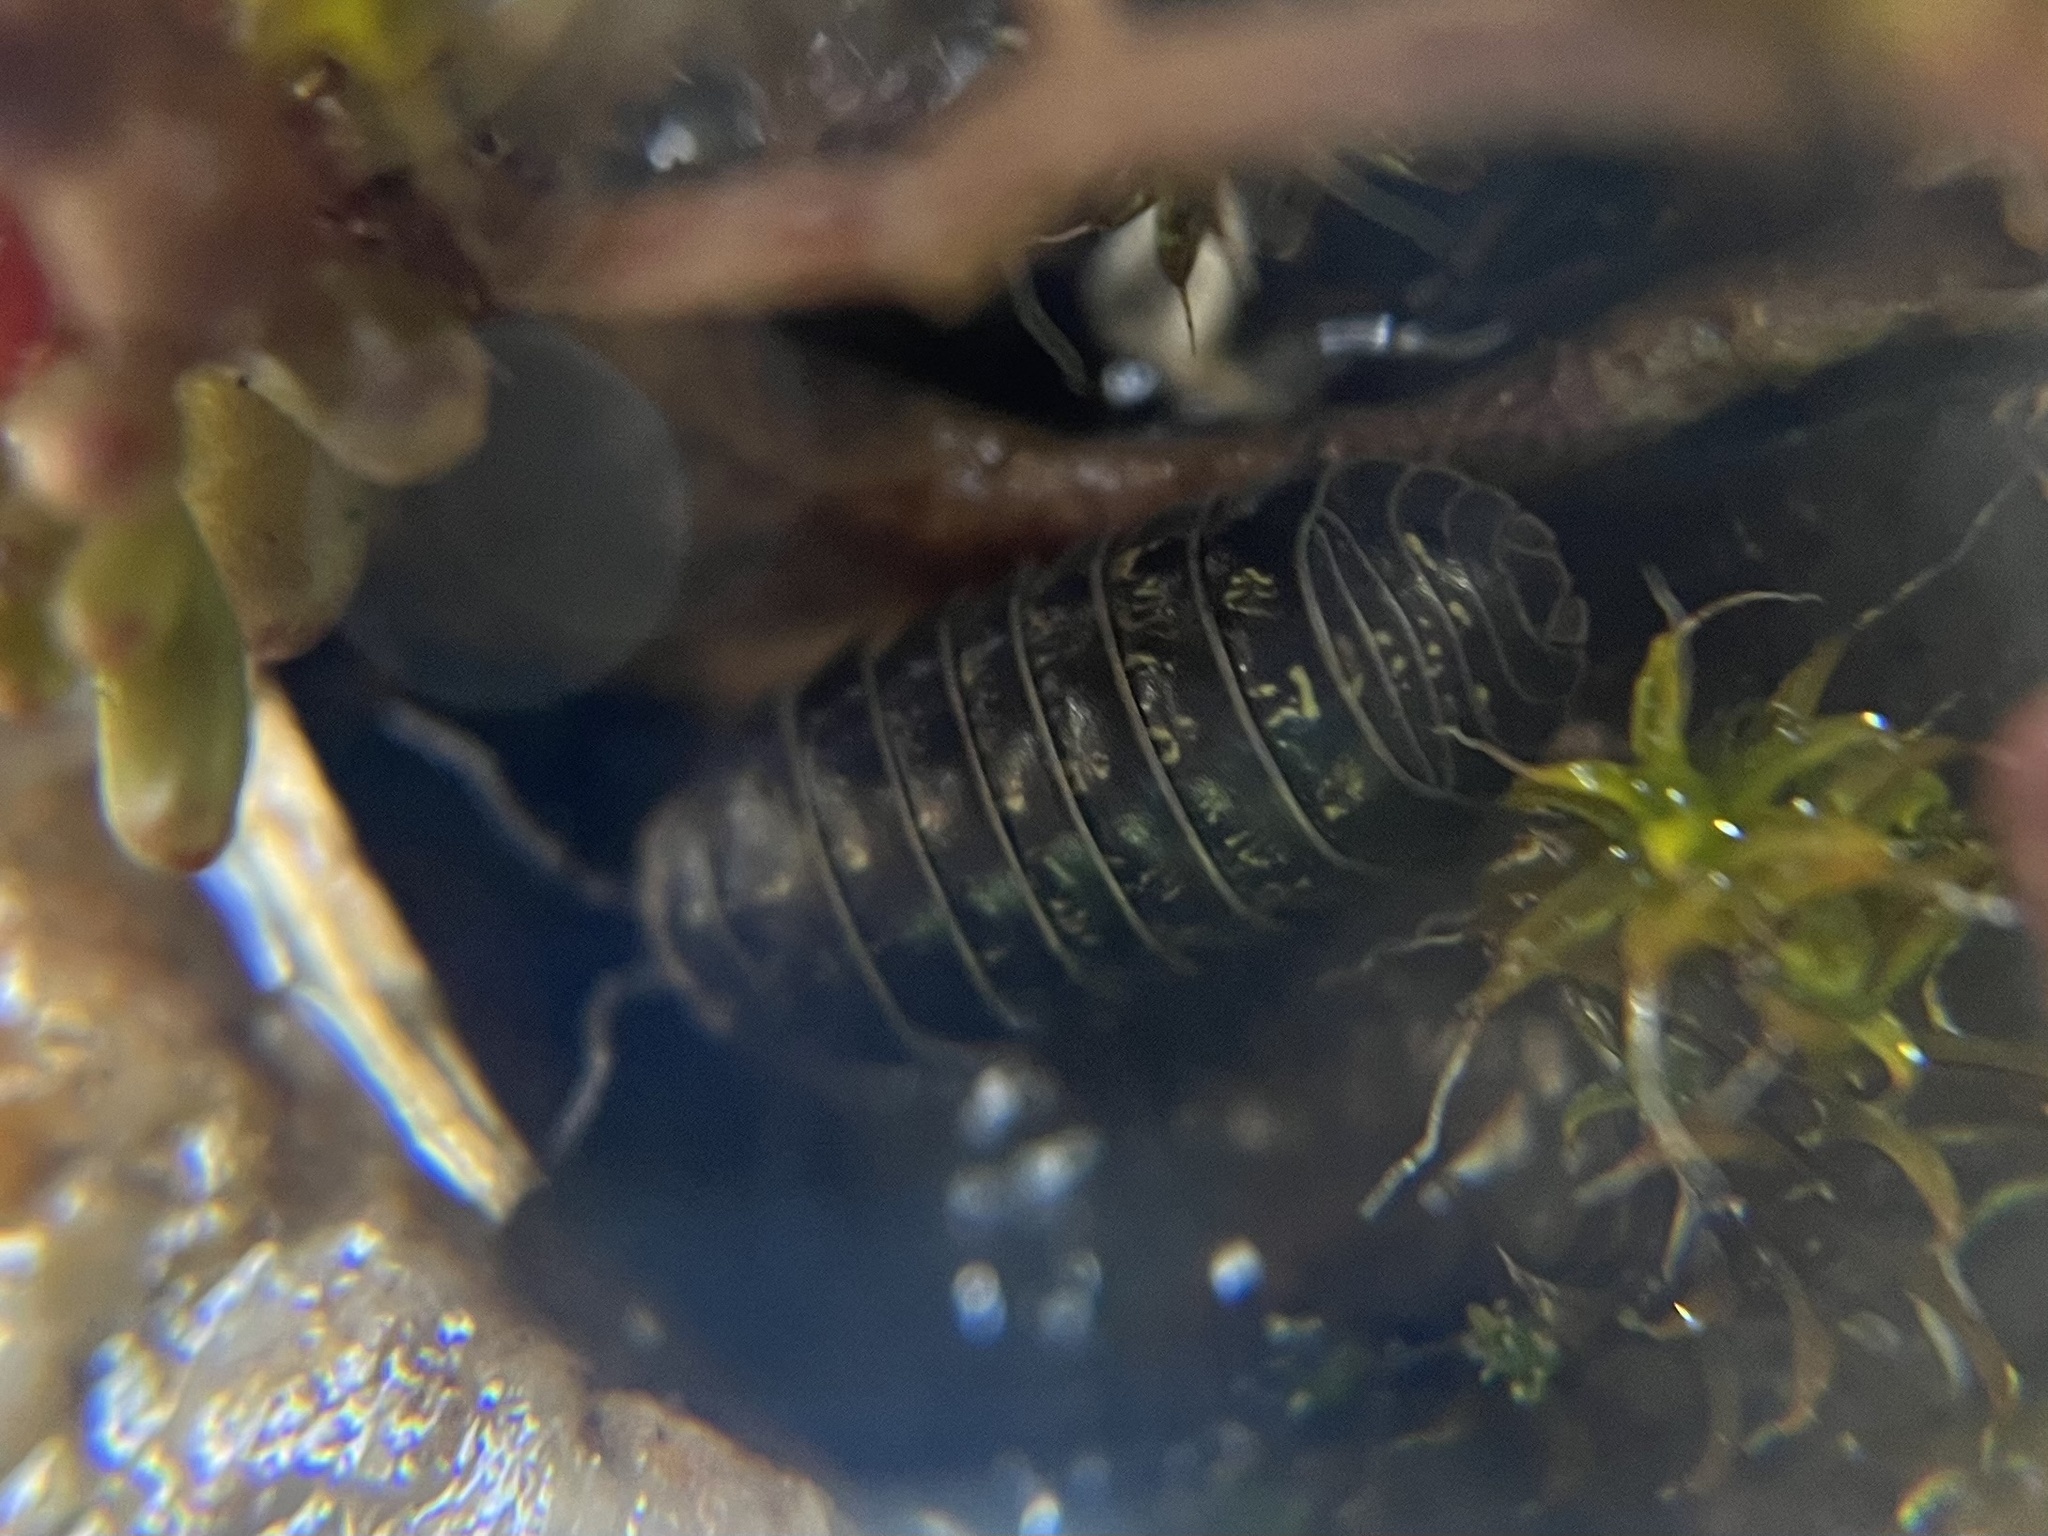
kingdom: Animalia
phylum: Arthropoda
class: Malacostraca
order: Isopoda
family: Armadillidiidae
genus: Armadillidium
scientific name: Armadillidium vulgare
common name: Common pill woodlouse
